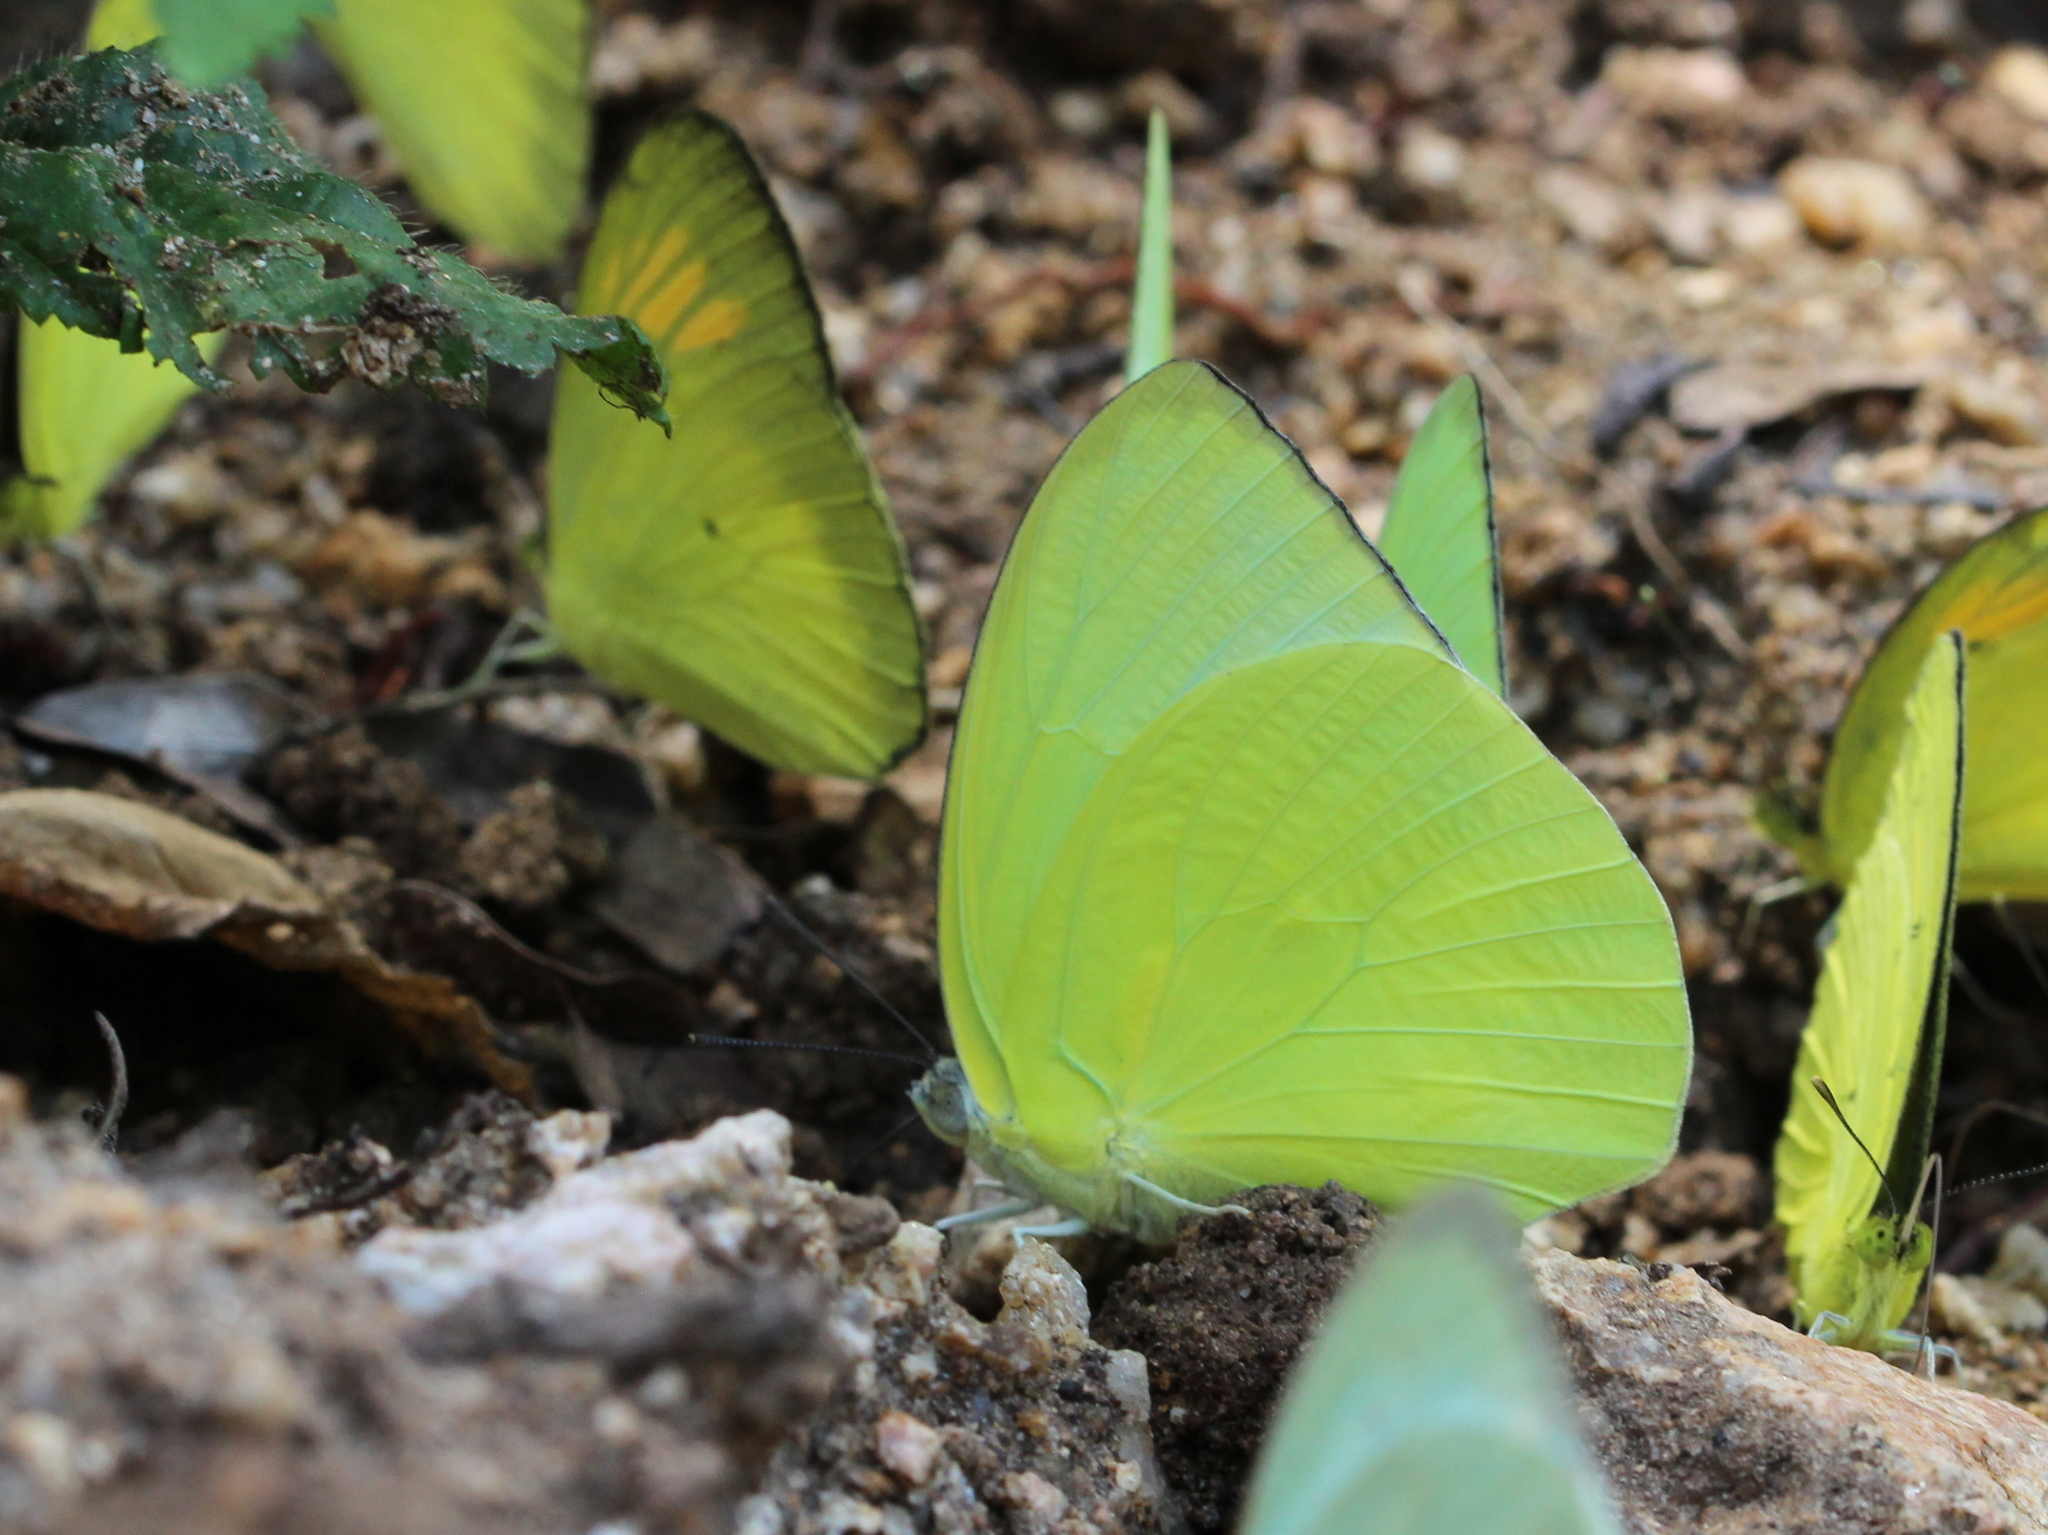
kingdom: Animalia
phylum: Arthropoda
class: Insecta
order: Lepidoptera
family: Pieridae
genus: Catopsilia
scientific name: Catopsilia pomona
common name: Common emigrant
